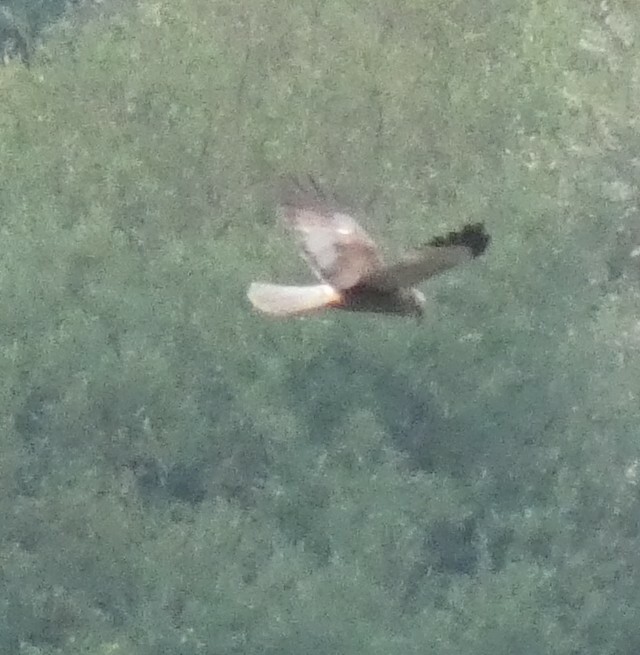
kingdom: Animalia
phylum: Chordata
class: Aves
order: Accipitriformes
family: Accipitridae
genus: Circus
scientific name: Circus aeruginosus
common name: Western marsh harrier
